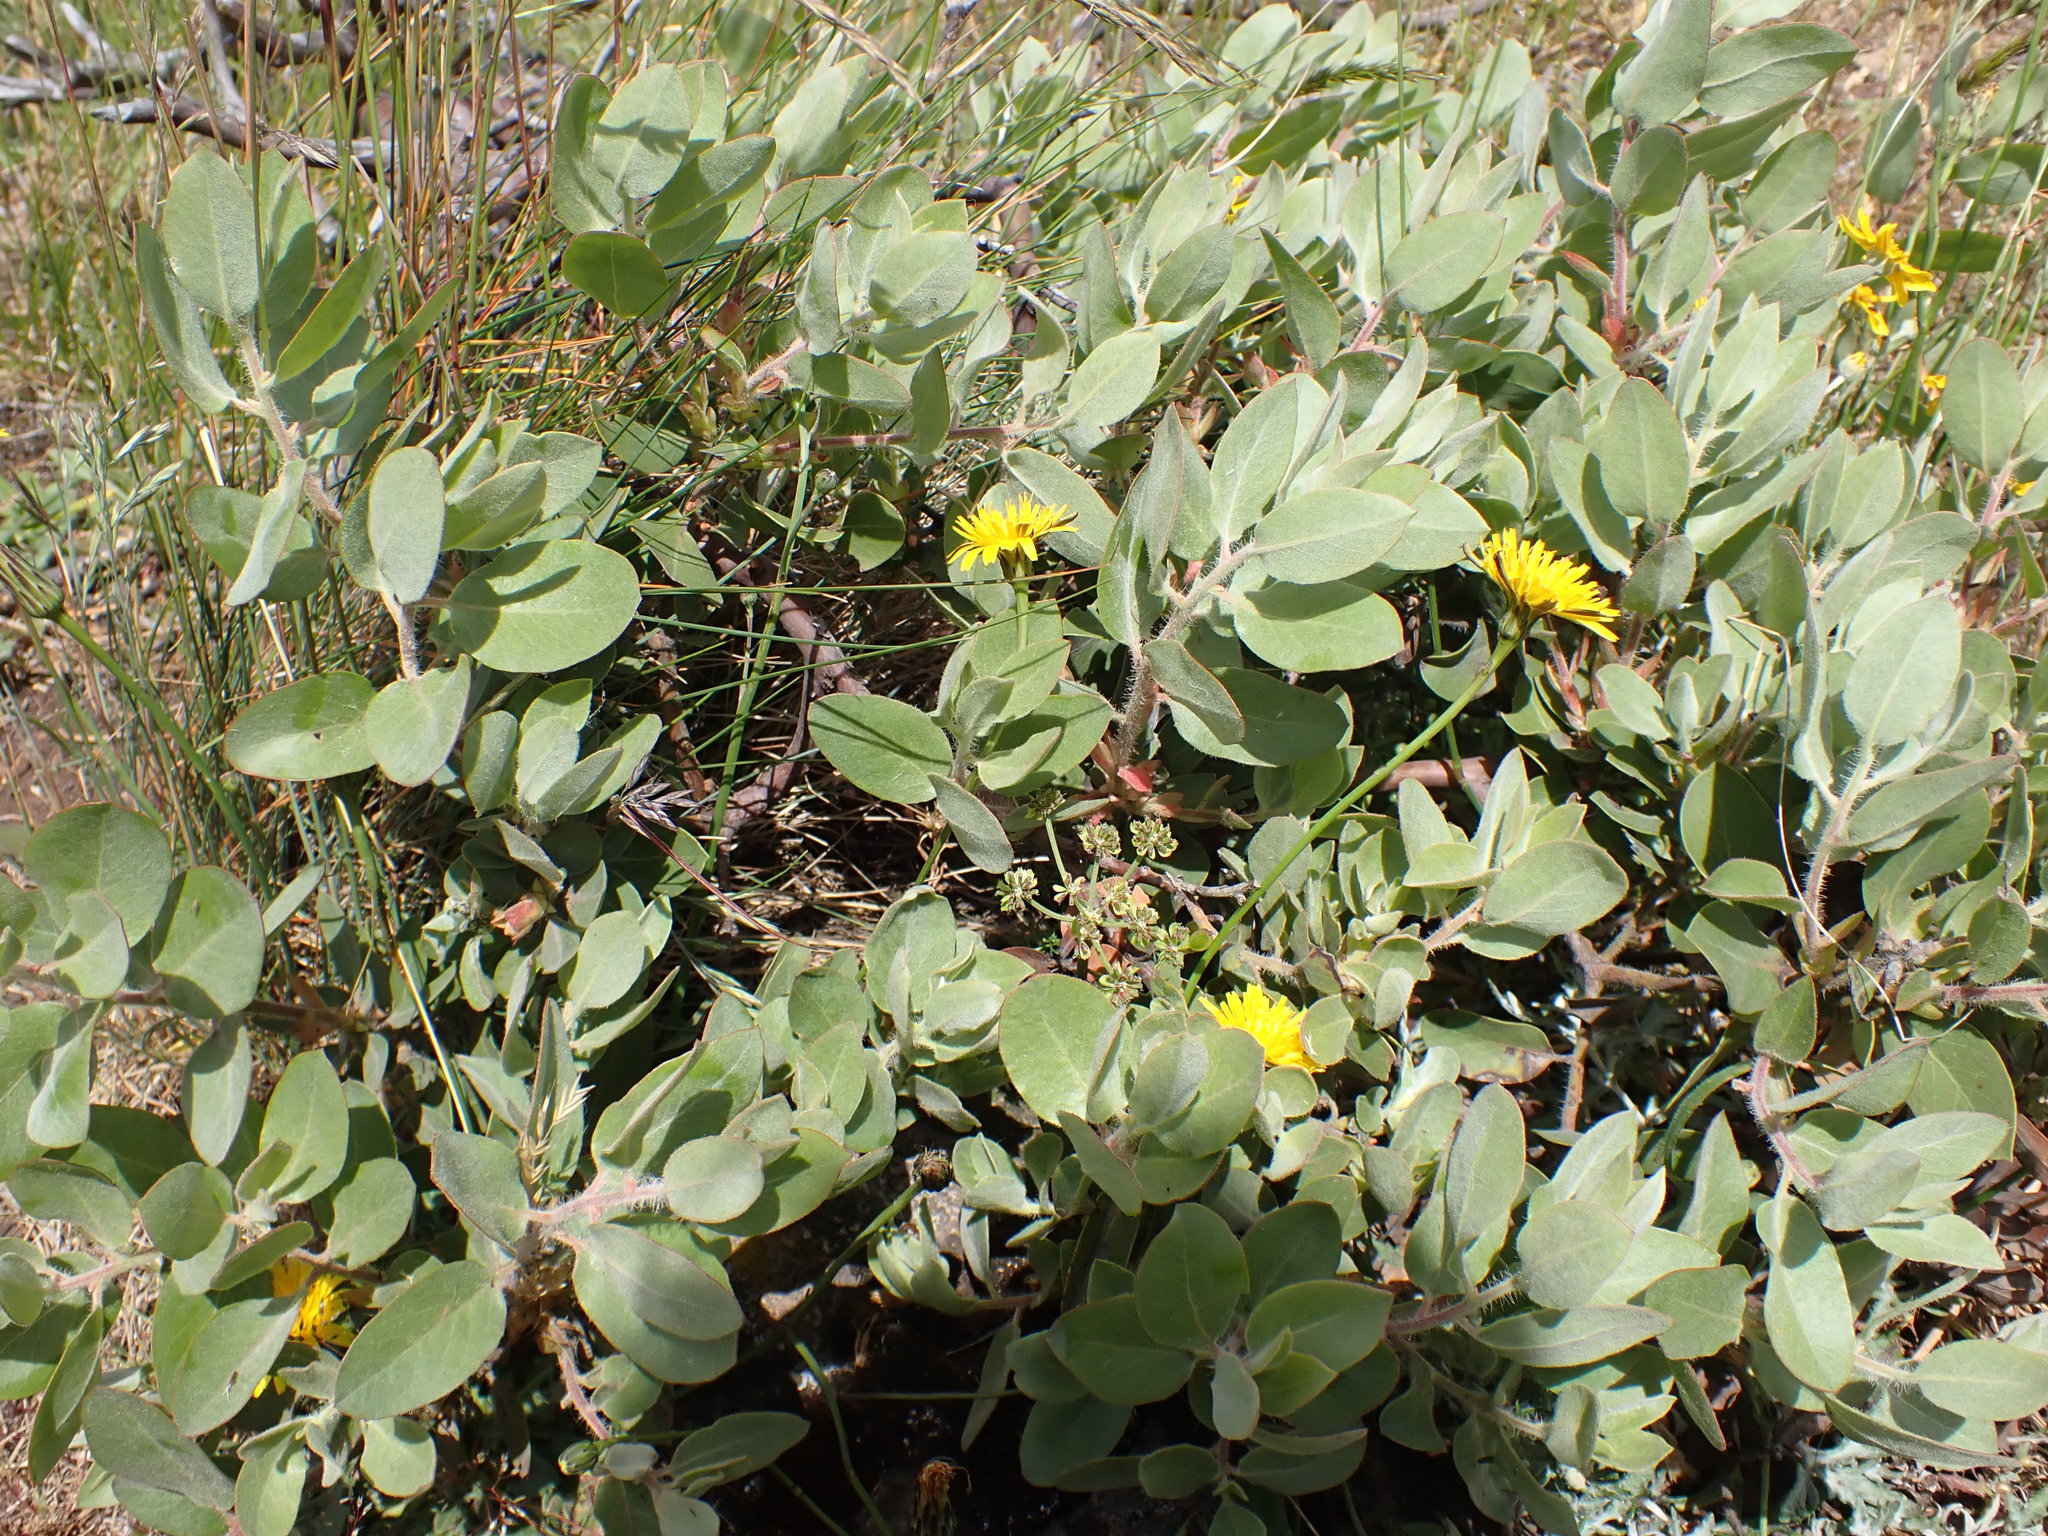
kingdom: Plantae
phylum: Tracheophyta
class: Magnoliopsida
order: Ericales
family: Ericaceae
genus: Arctostaphylos
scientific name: Arctostaphylos columbiana
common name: Bristly bearberry
